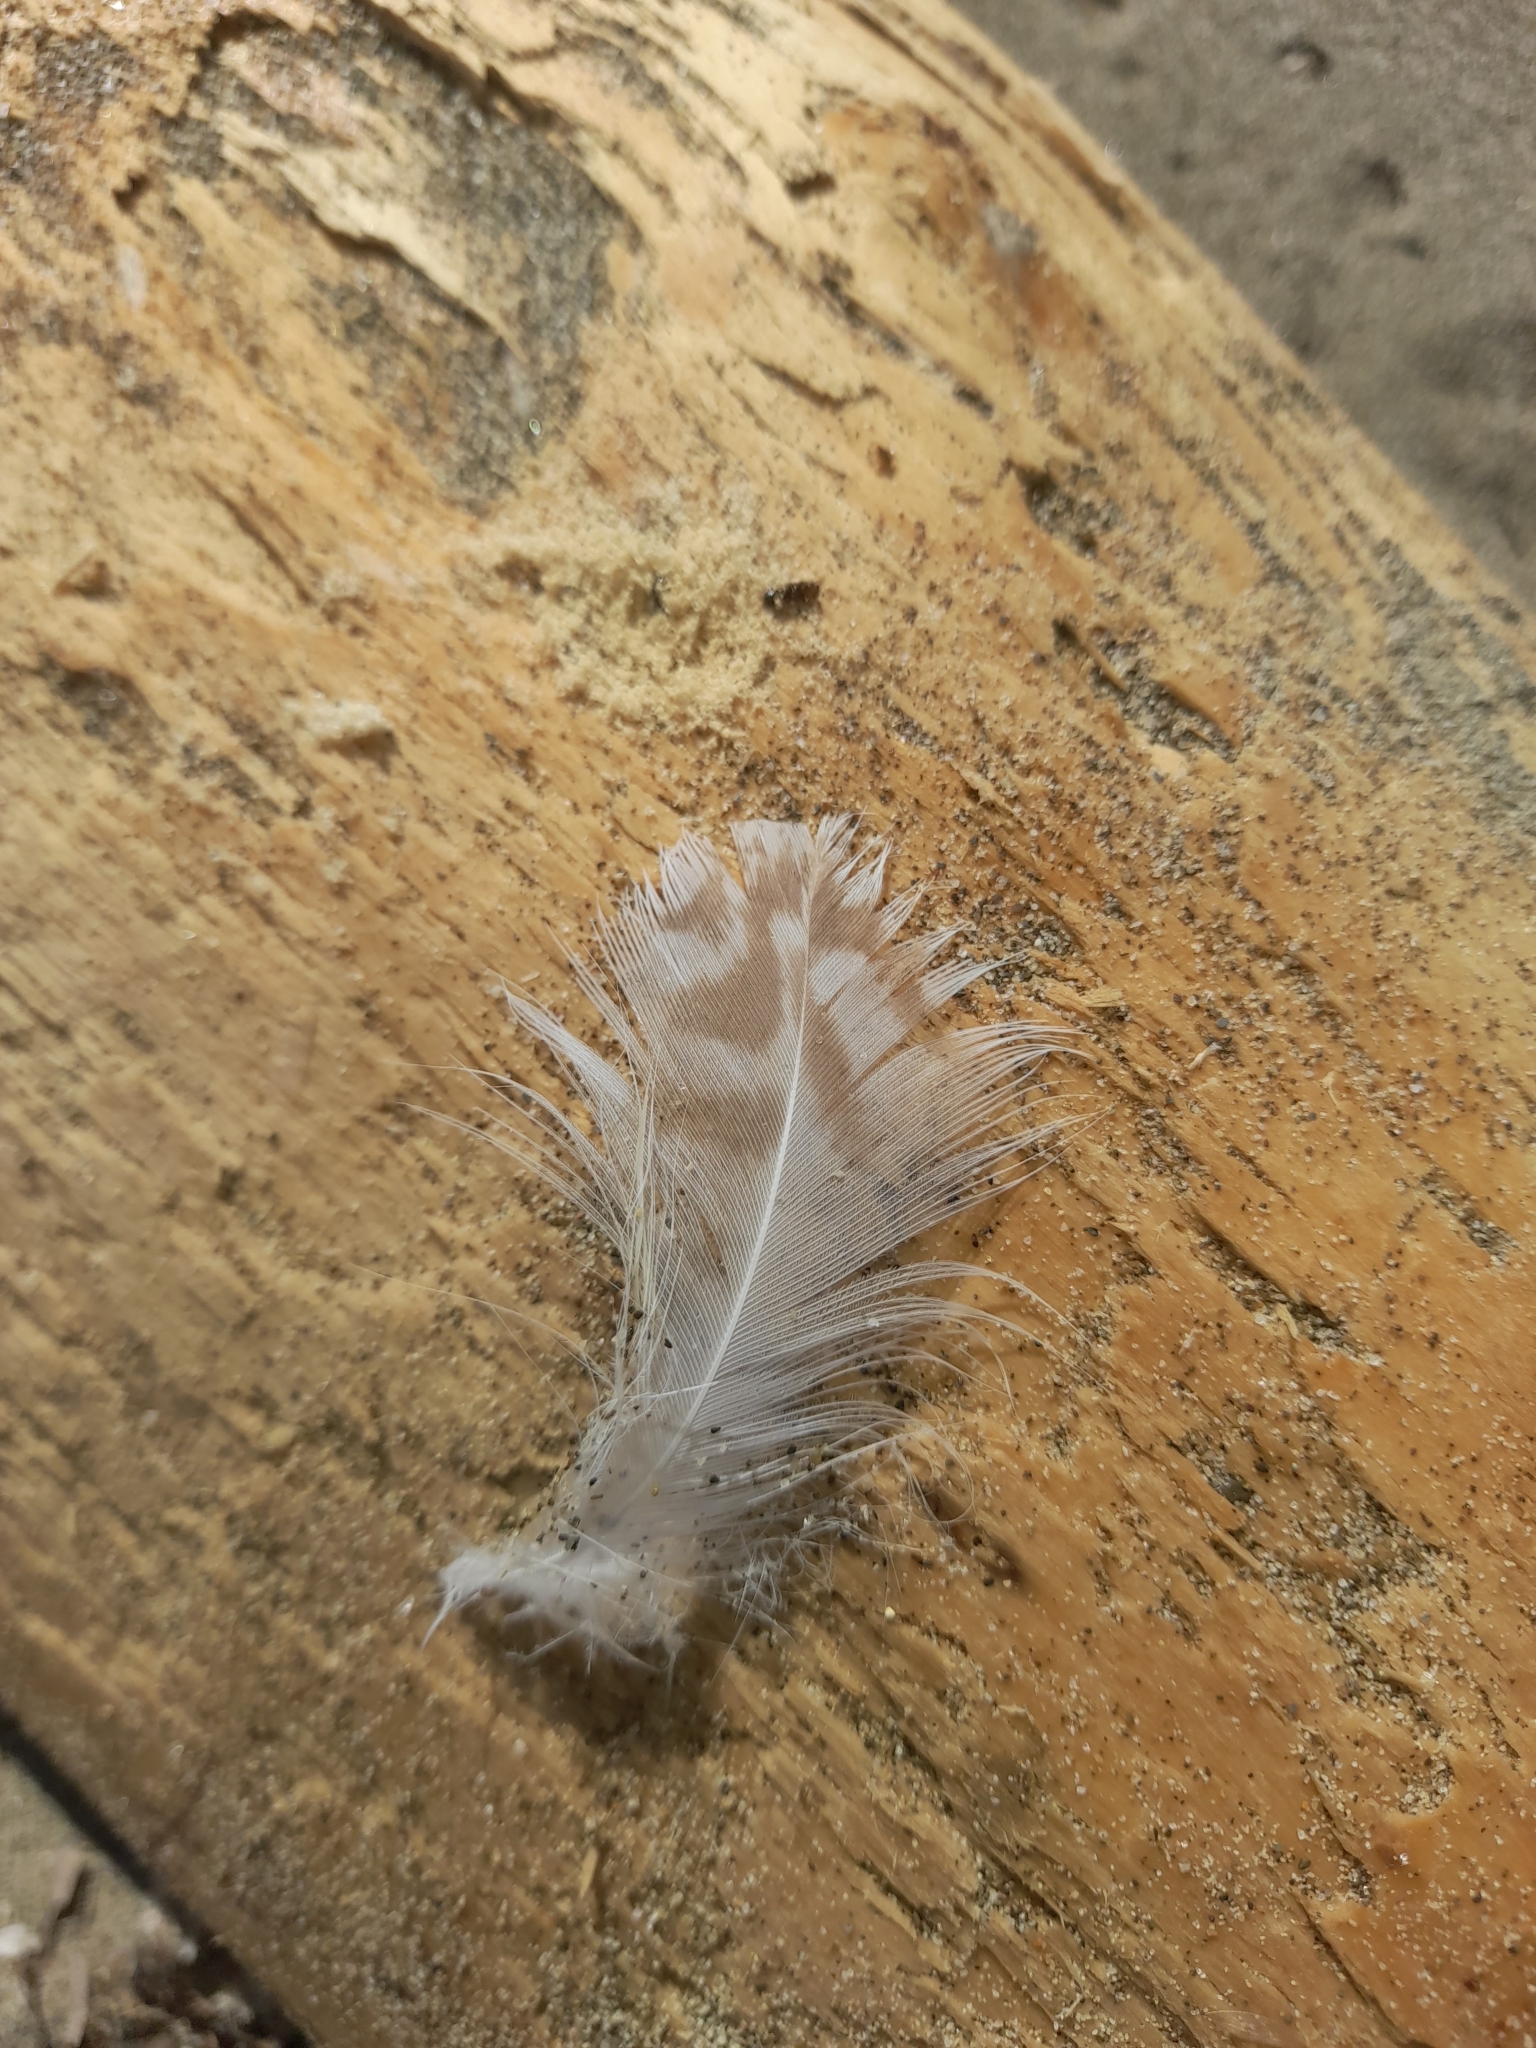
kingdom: Animalia
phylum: Chordata
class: Aves
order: Charadriiformes
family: Laridae
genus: Larus
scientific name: Larus michahellis
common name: Yellow-legged gull
